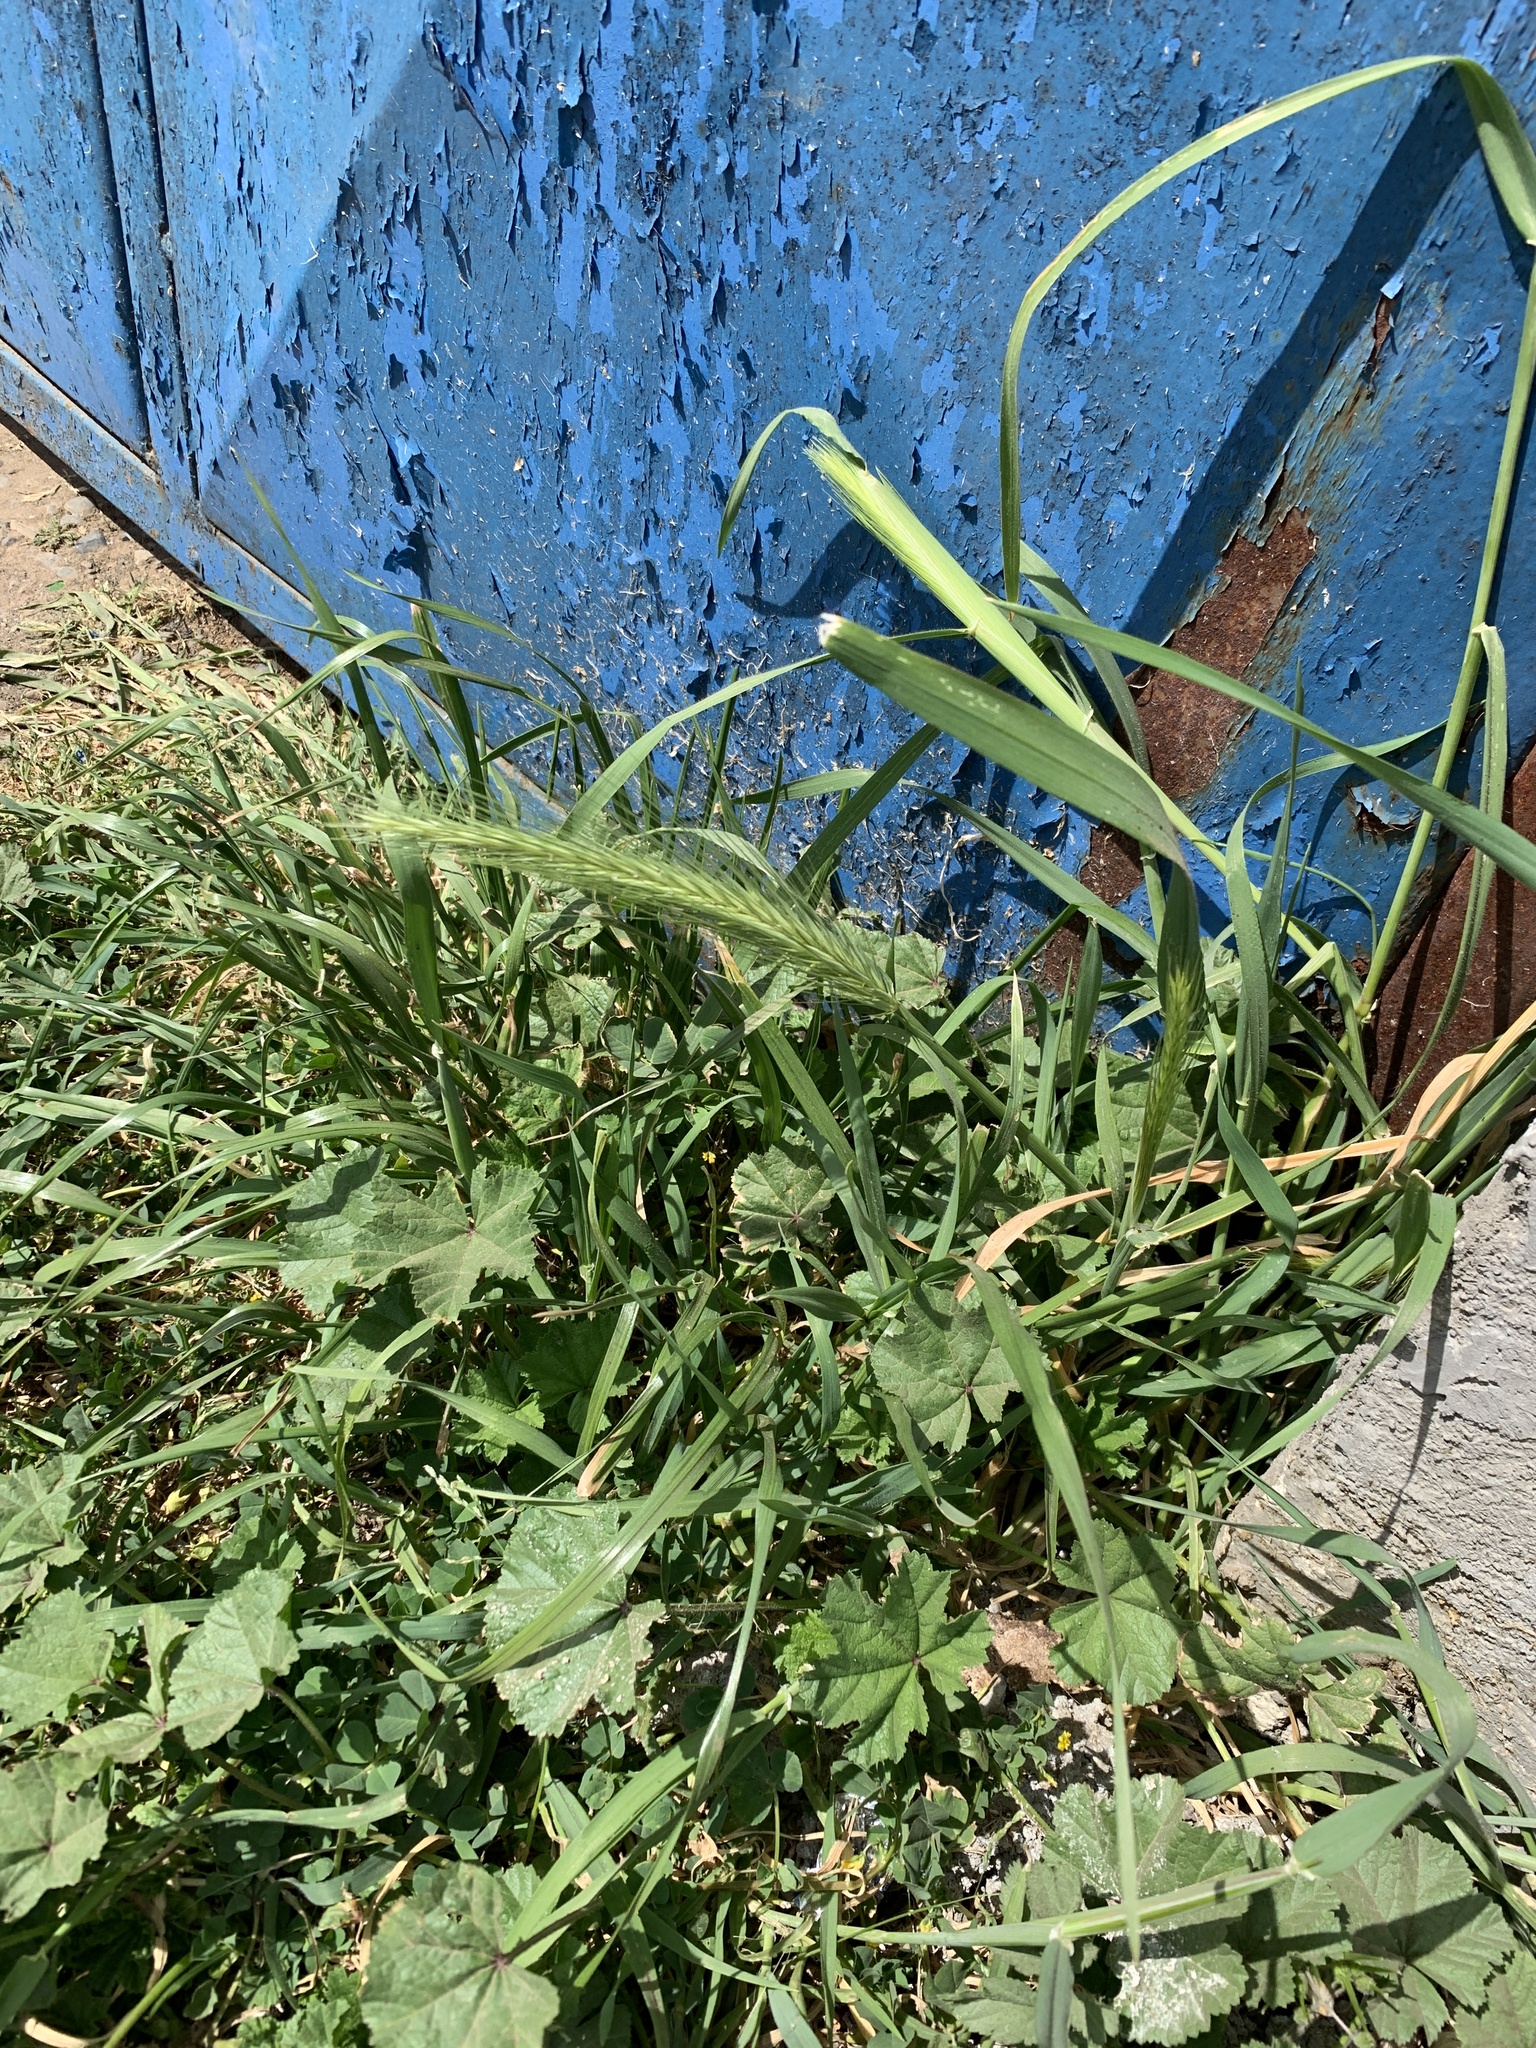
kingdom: Plantae
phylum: Tracheophyta
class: Liliopsida
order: Poales
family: Poaceae
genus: Hordeum
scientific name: Hordeum murinum
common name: Wall barley
